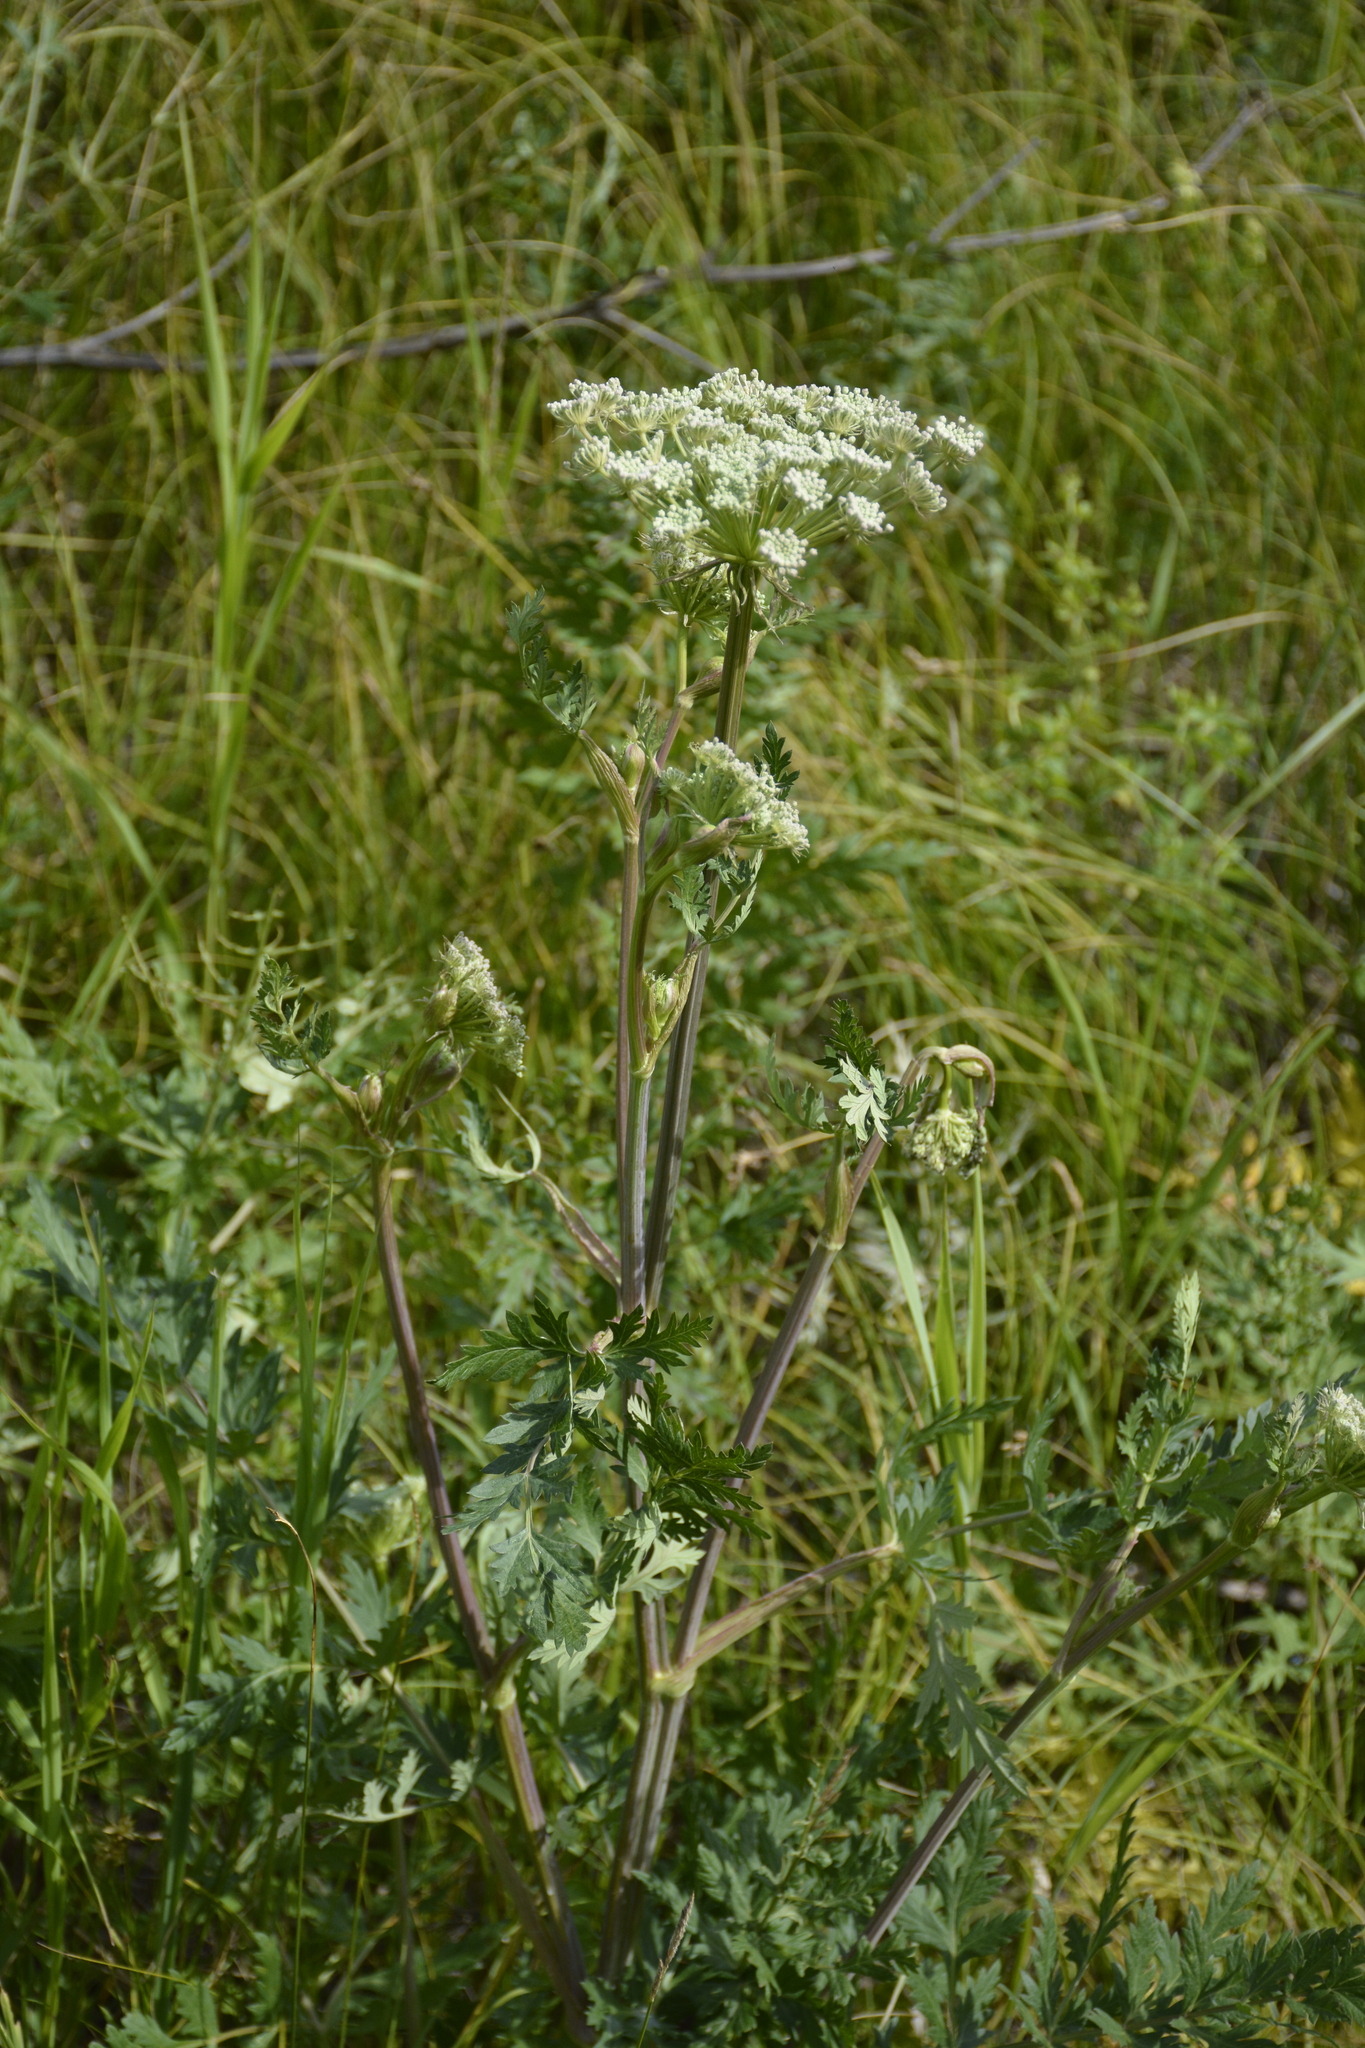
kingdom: Plantae
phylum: Tracheophyta
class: Magnoliopsida
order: Apiales
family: Apiaceae
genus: Seseli
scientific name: Seseli libanotis
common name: Mooncarrot
